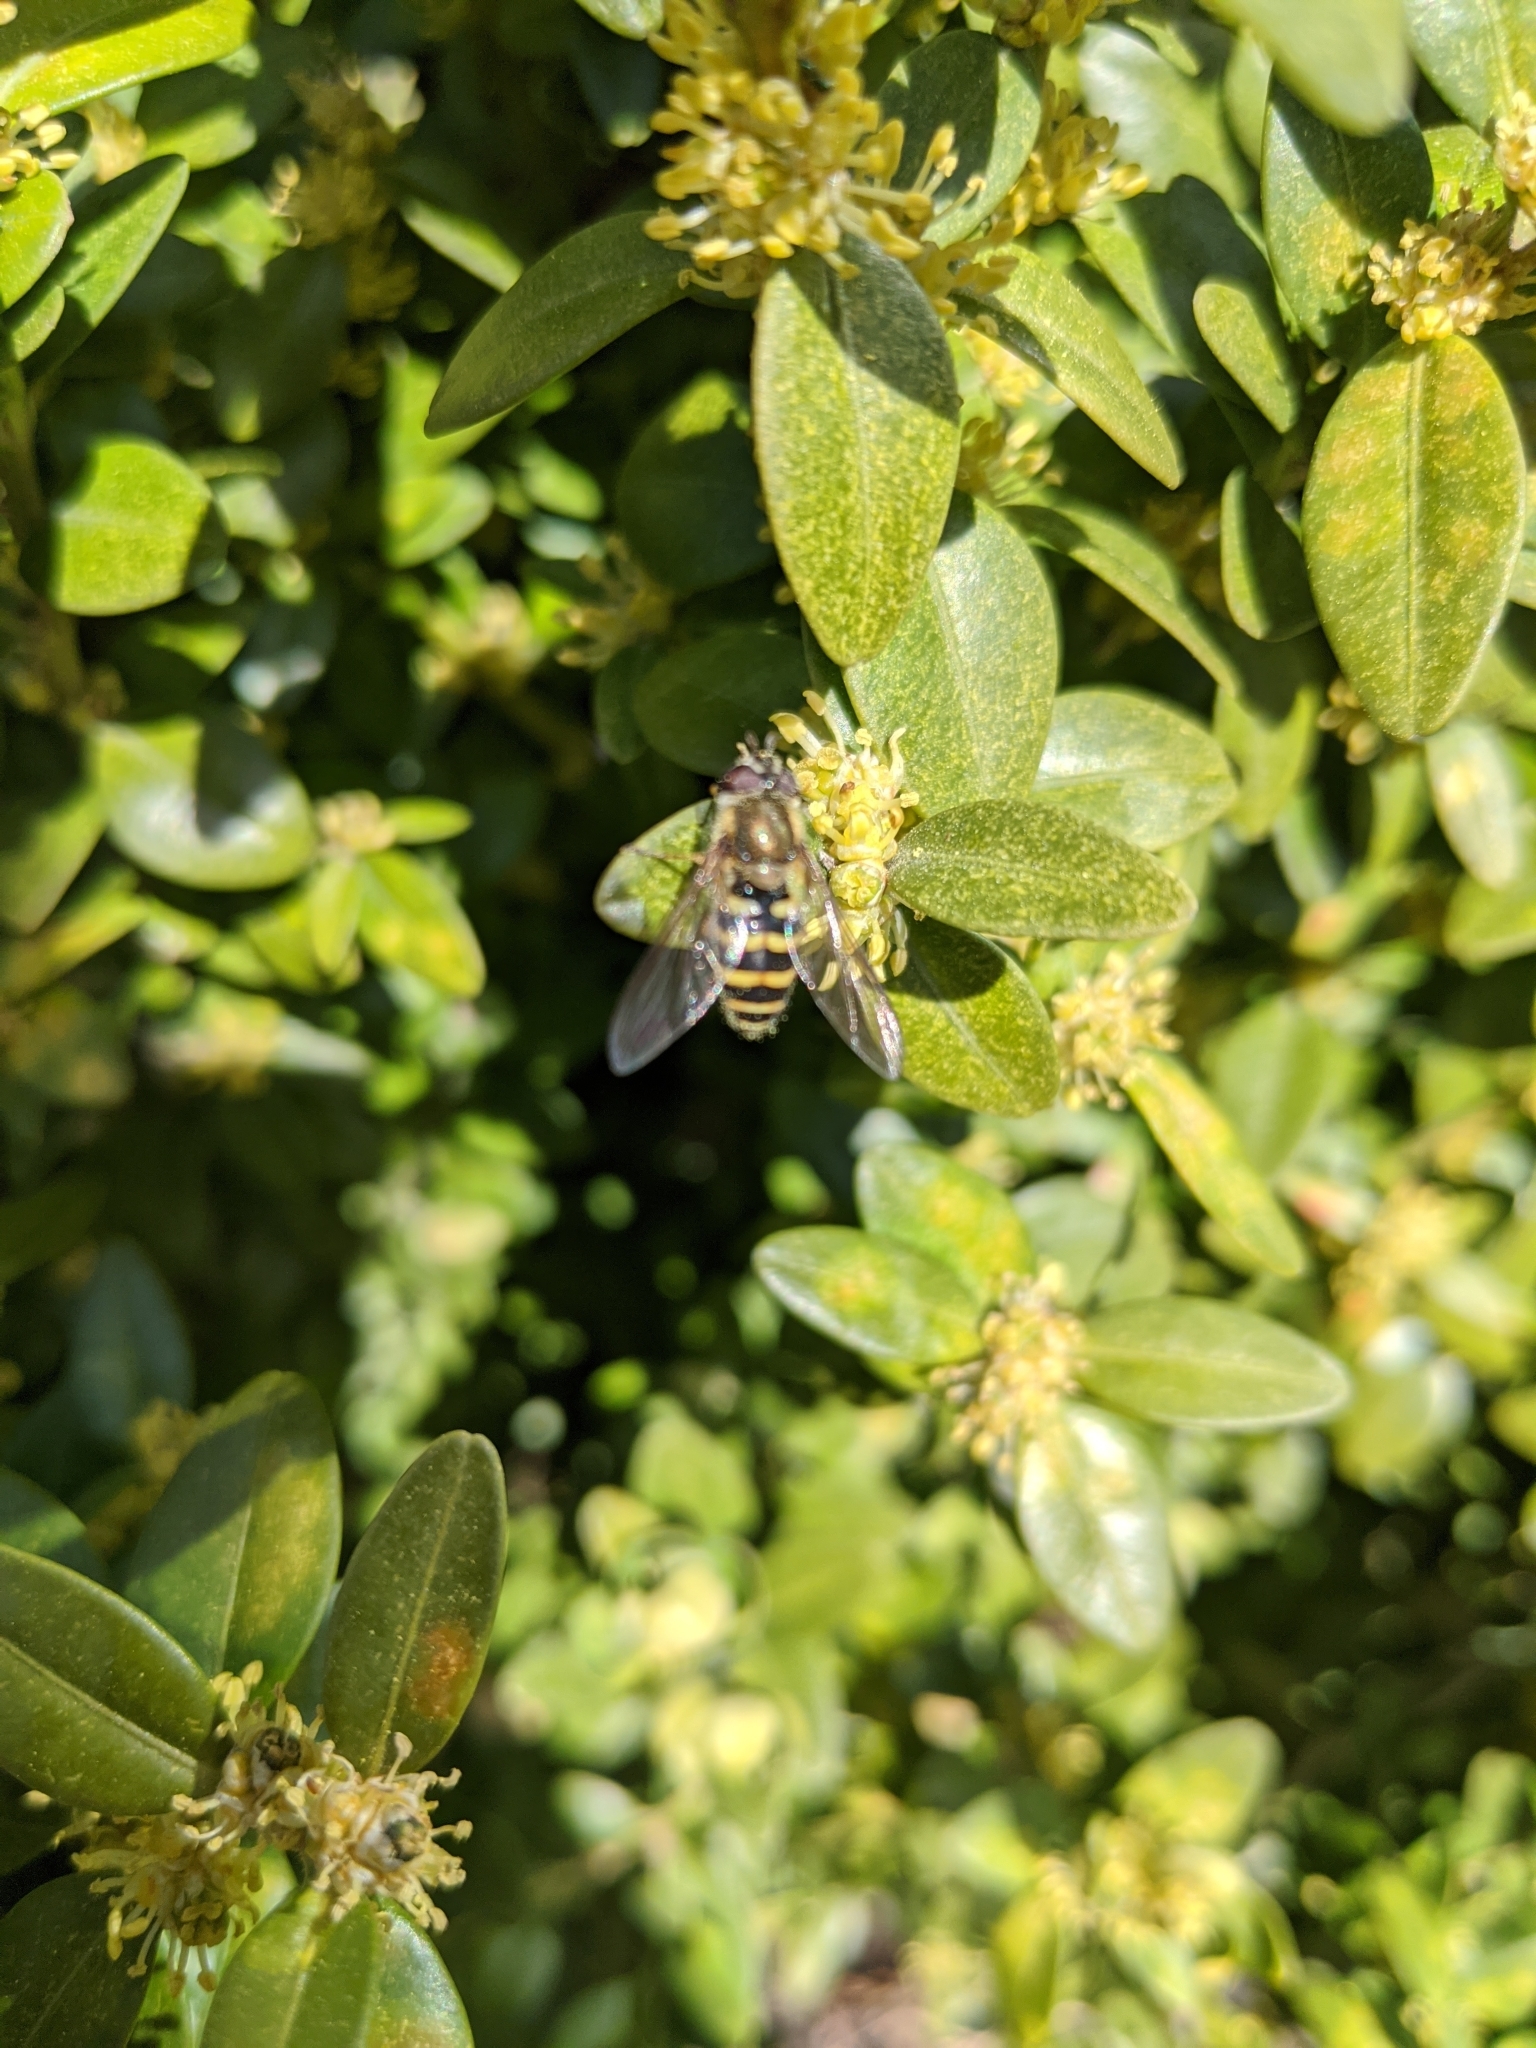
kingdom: Animalia
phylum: Arthropoda
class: Insecta
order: Diptera
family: Syrphidae
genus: Syrphus
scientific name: Syrphus
